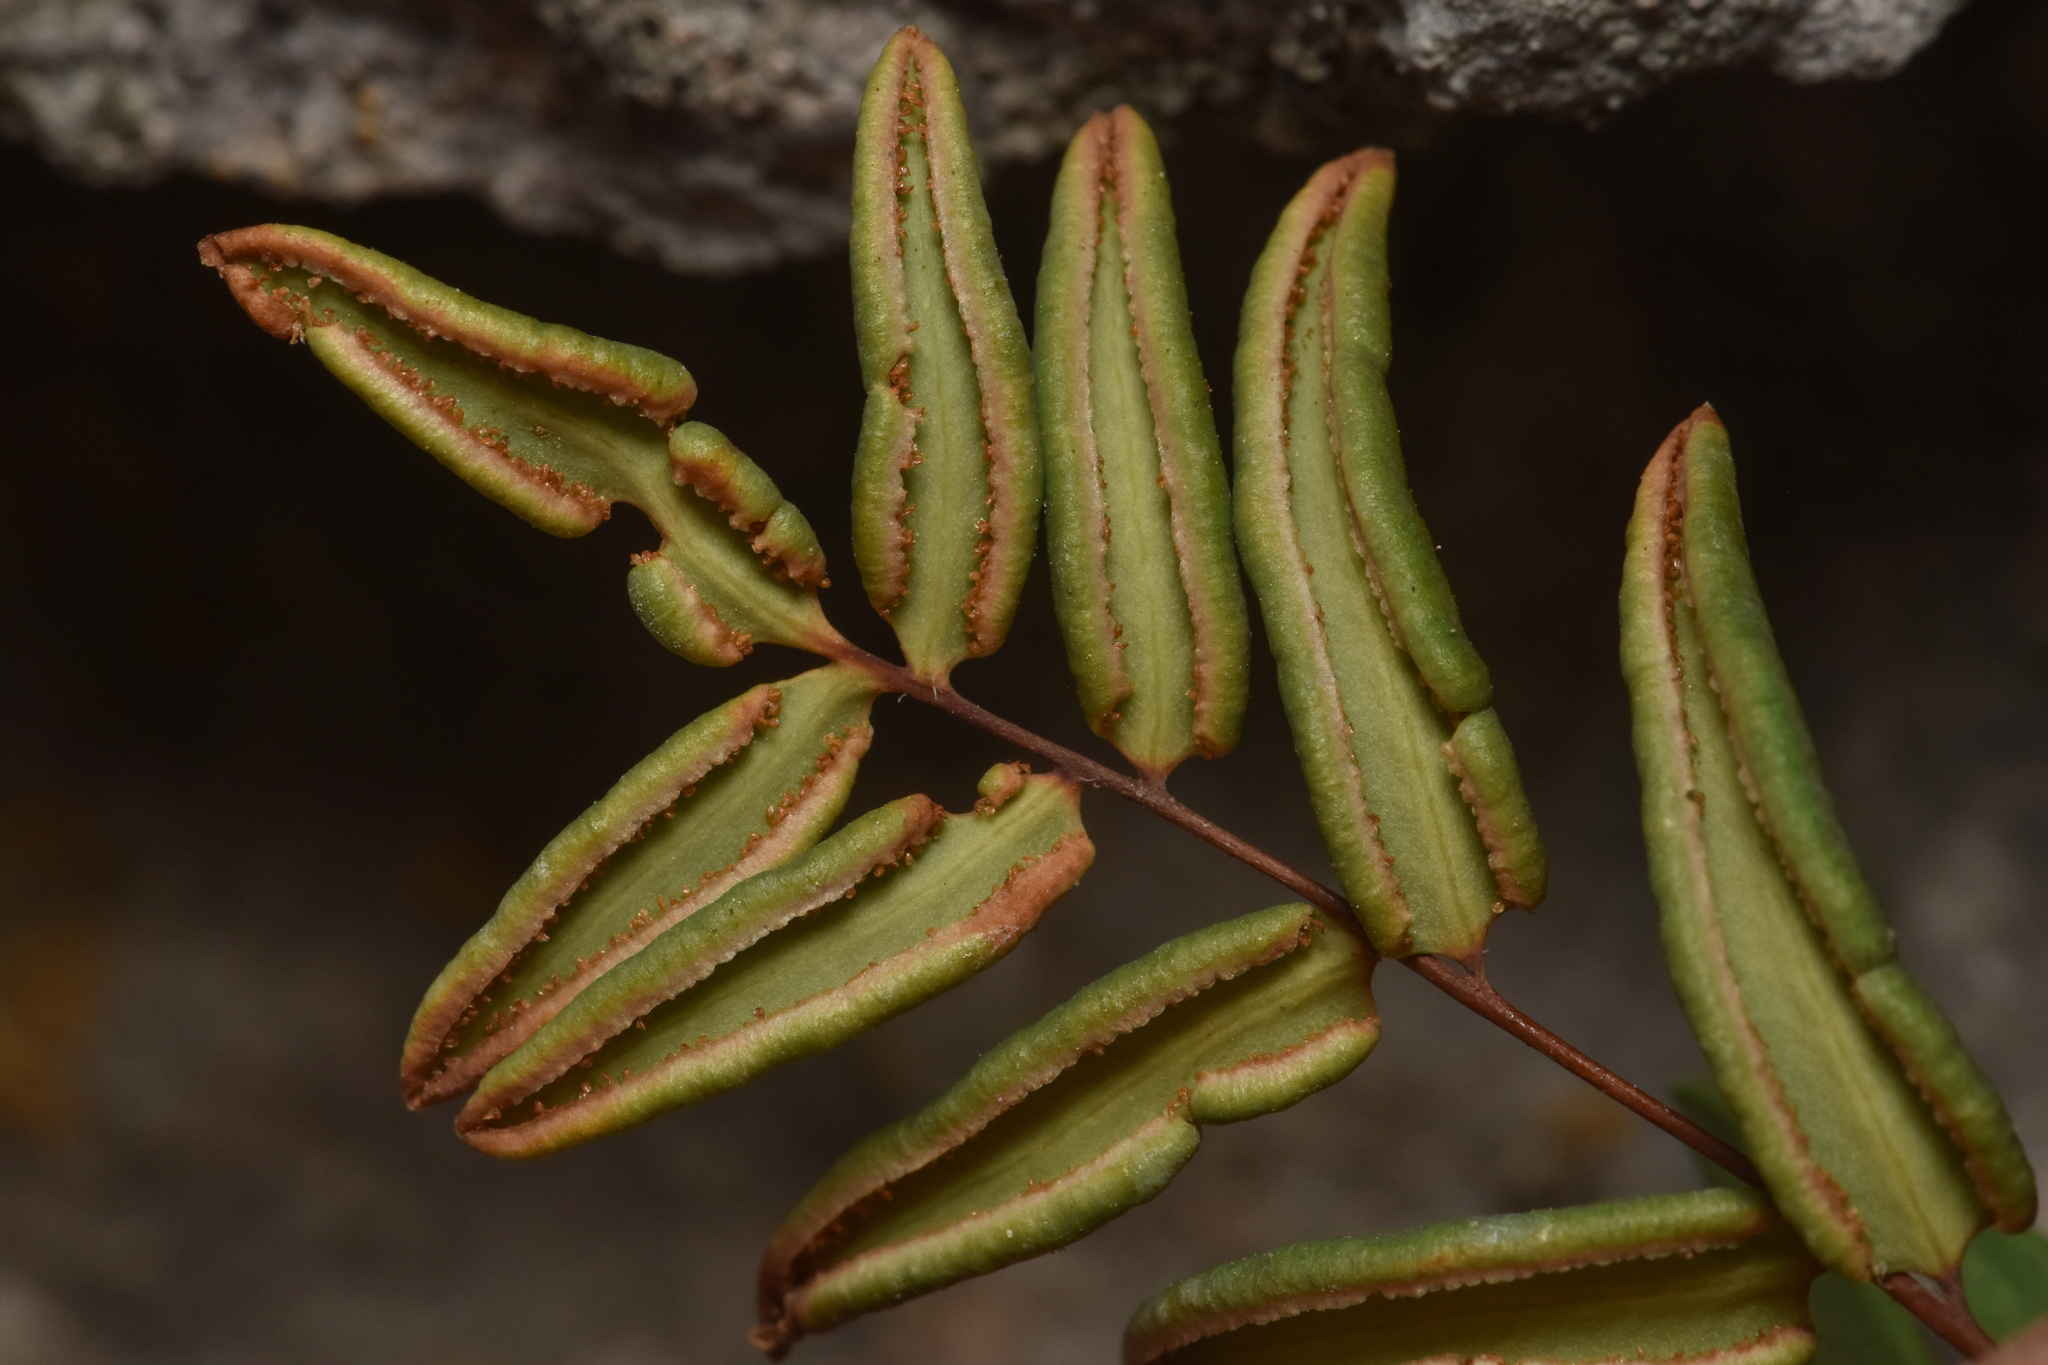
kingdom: Plantae
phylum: Tracheophyta
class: Polypodiopsida
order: Polypodiales
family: Pteridaceae
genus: Pellaea
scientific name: Pellaea glabella
